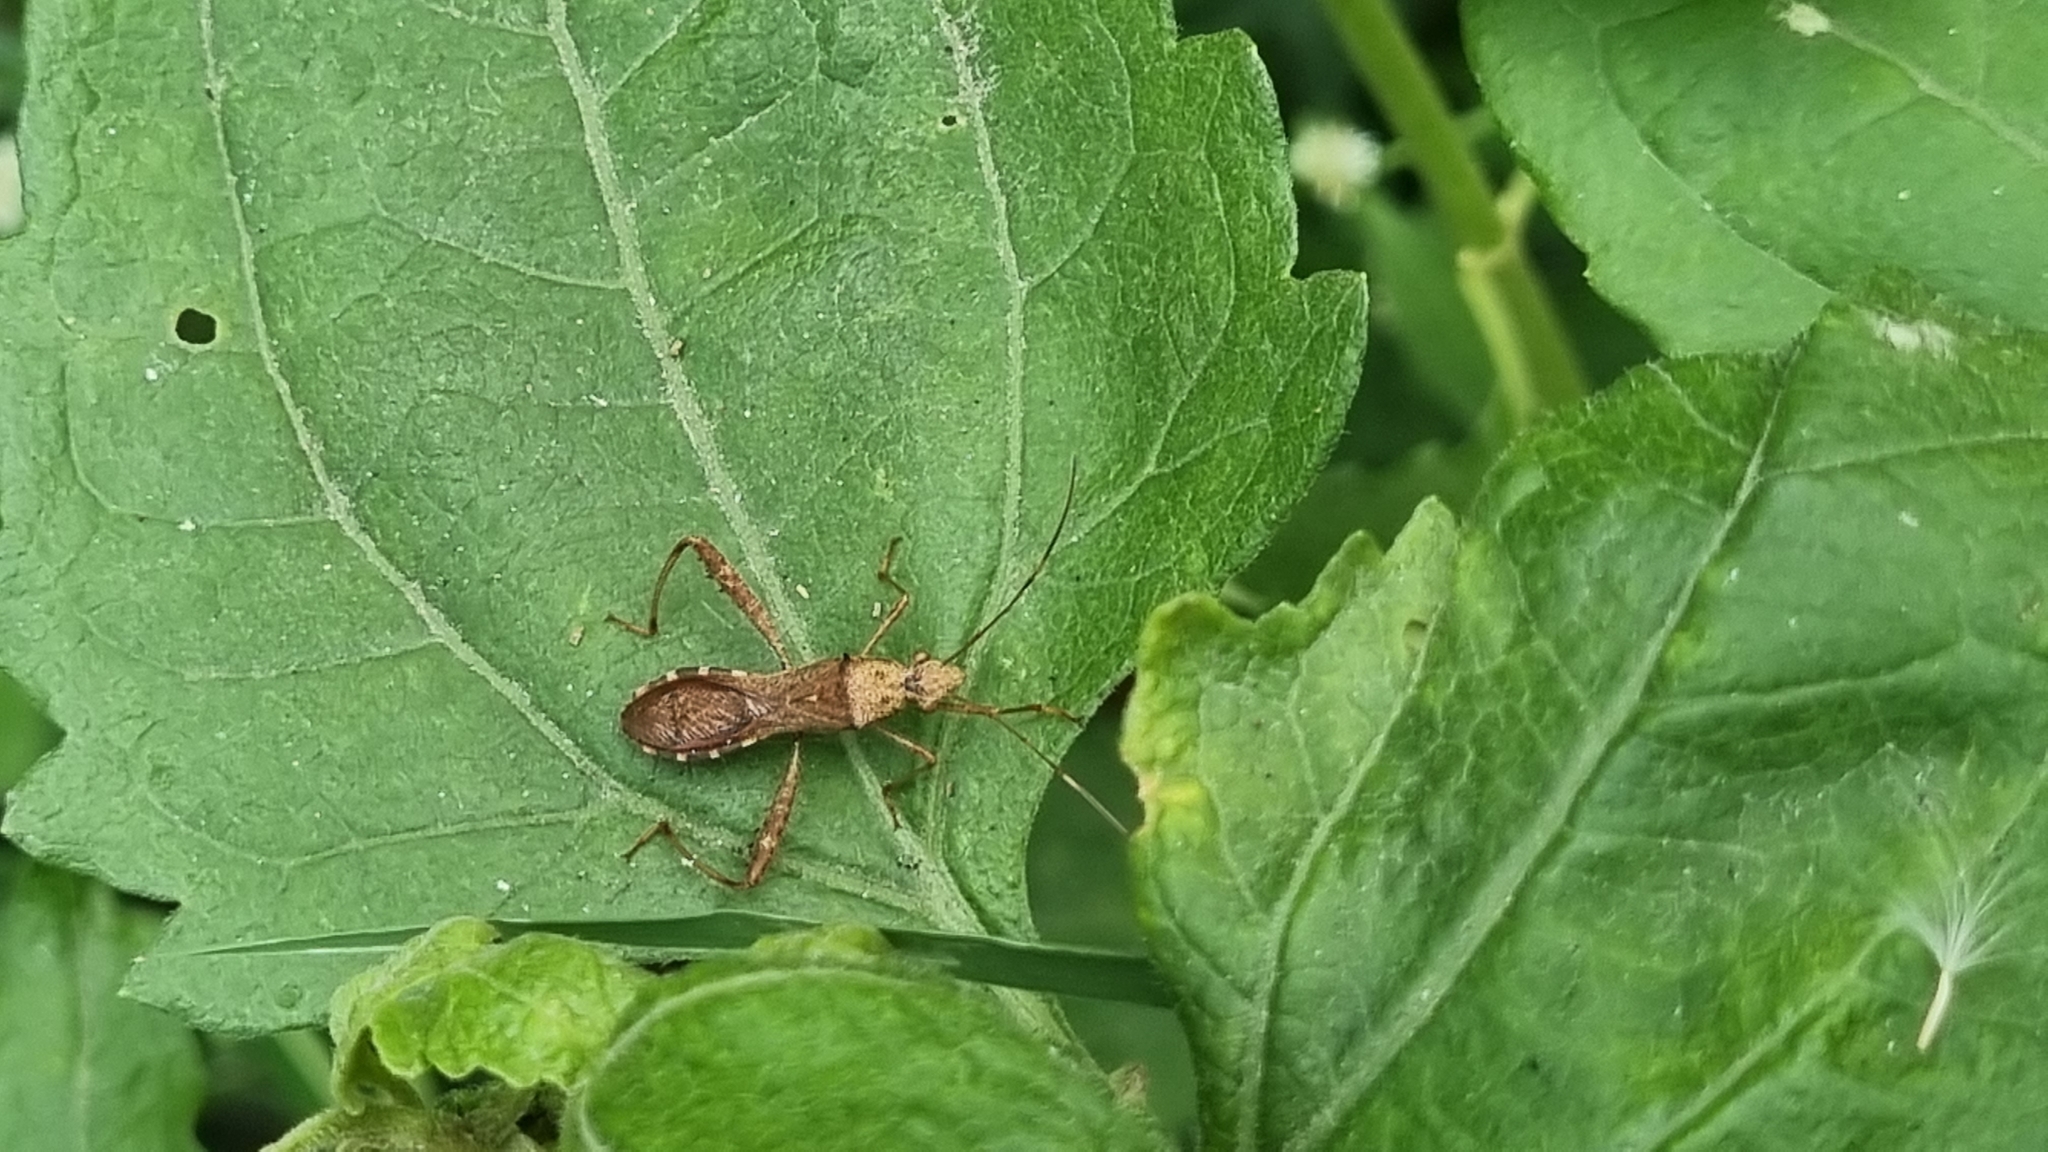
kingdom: Animalia
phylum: Arthropoda
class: Insecta
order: Hemiptera
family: Alydidae
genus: Riptortus
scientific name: Riptortus pedestris
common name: Bean bug
